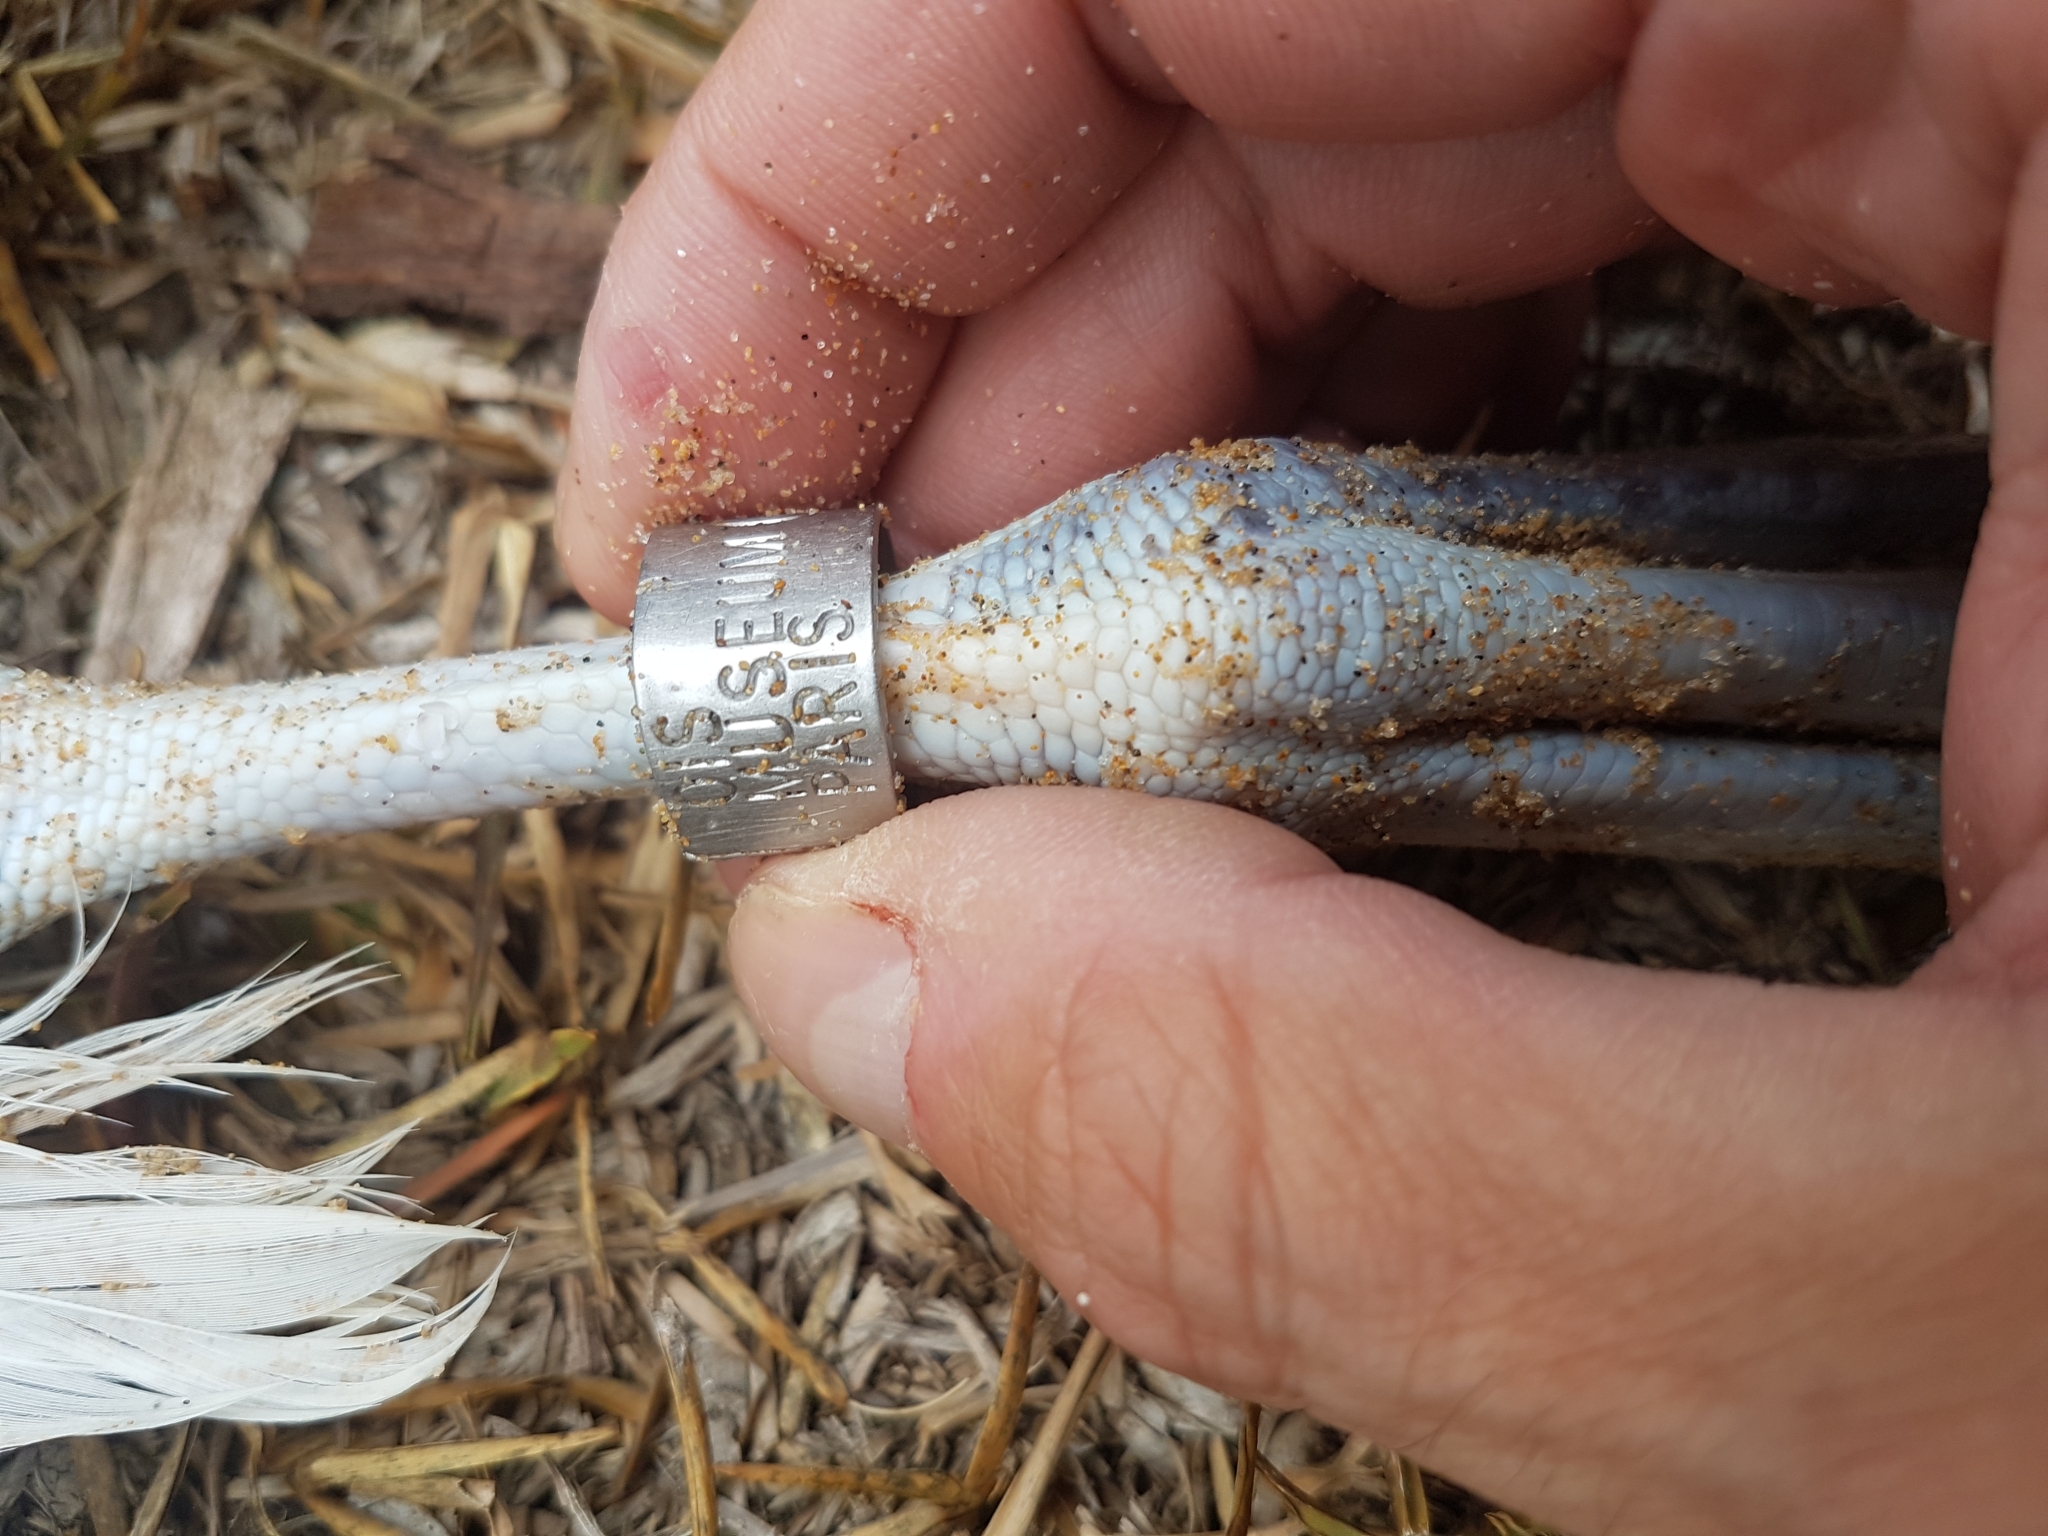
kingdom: Animalia
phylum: Chordata
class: Aves
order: Procellariiformes
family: Diomedeidae
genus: Thalassarche
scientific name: Thalassarche melanophris
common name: Black-browed albatross
